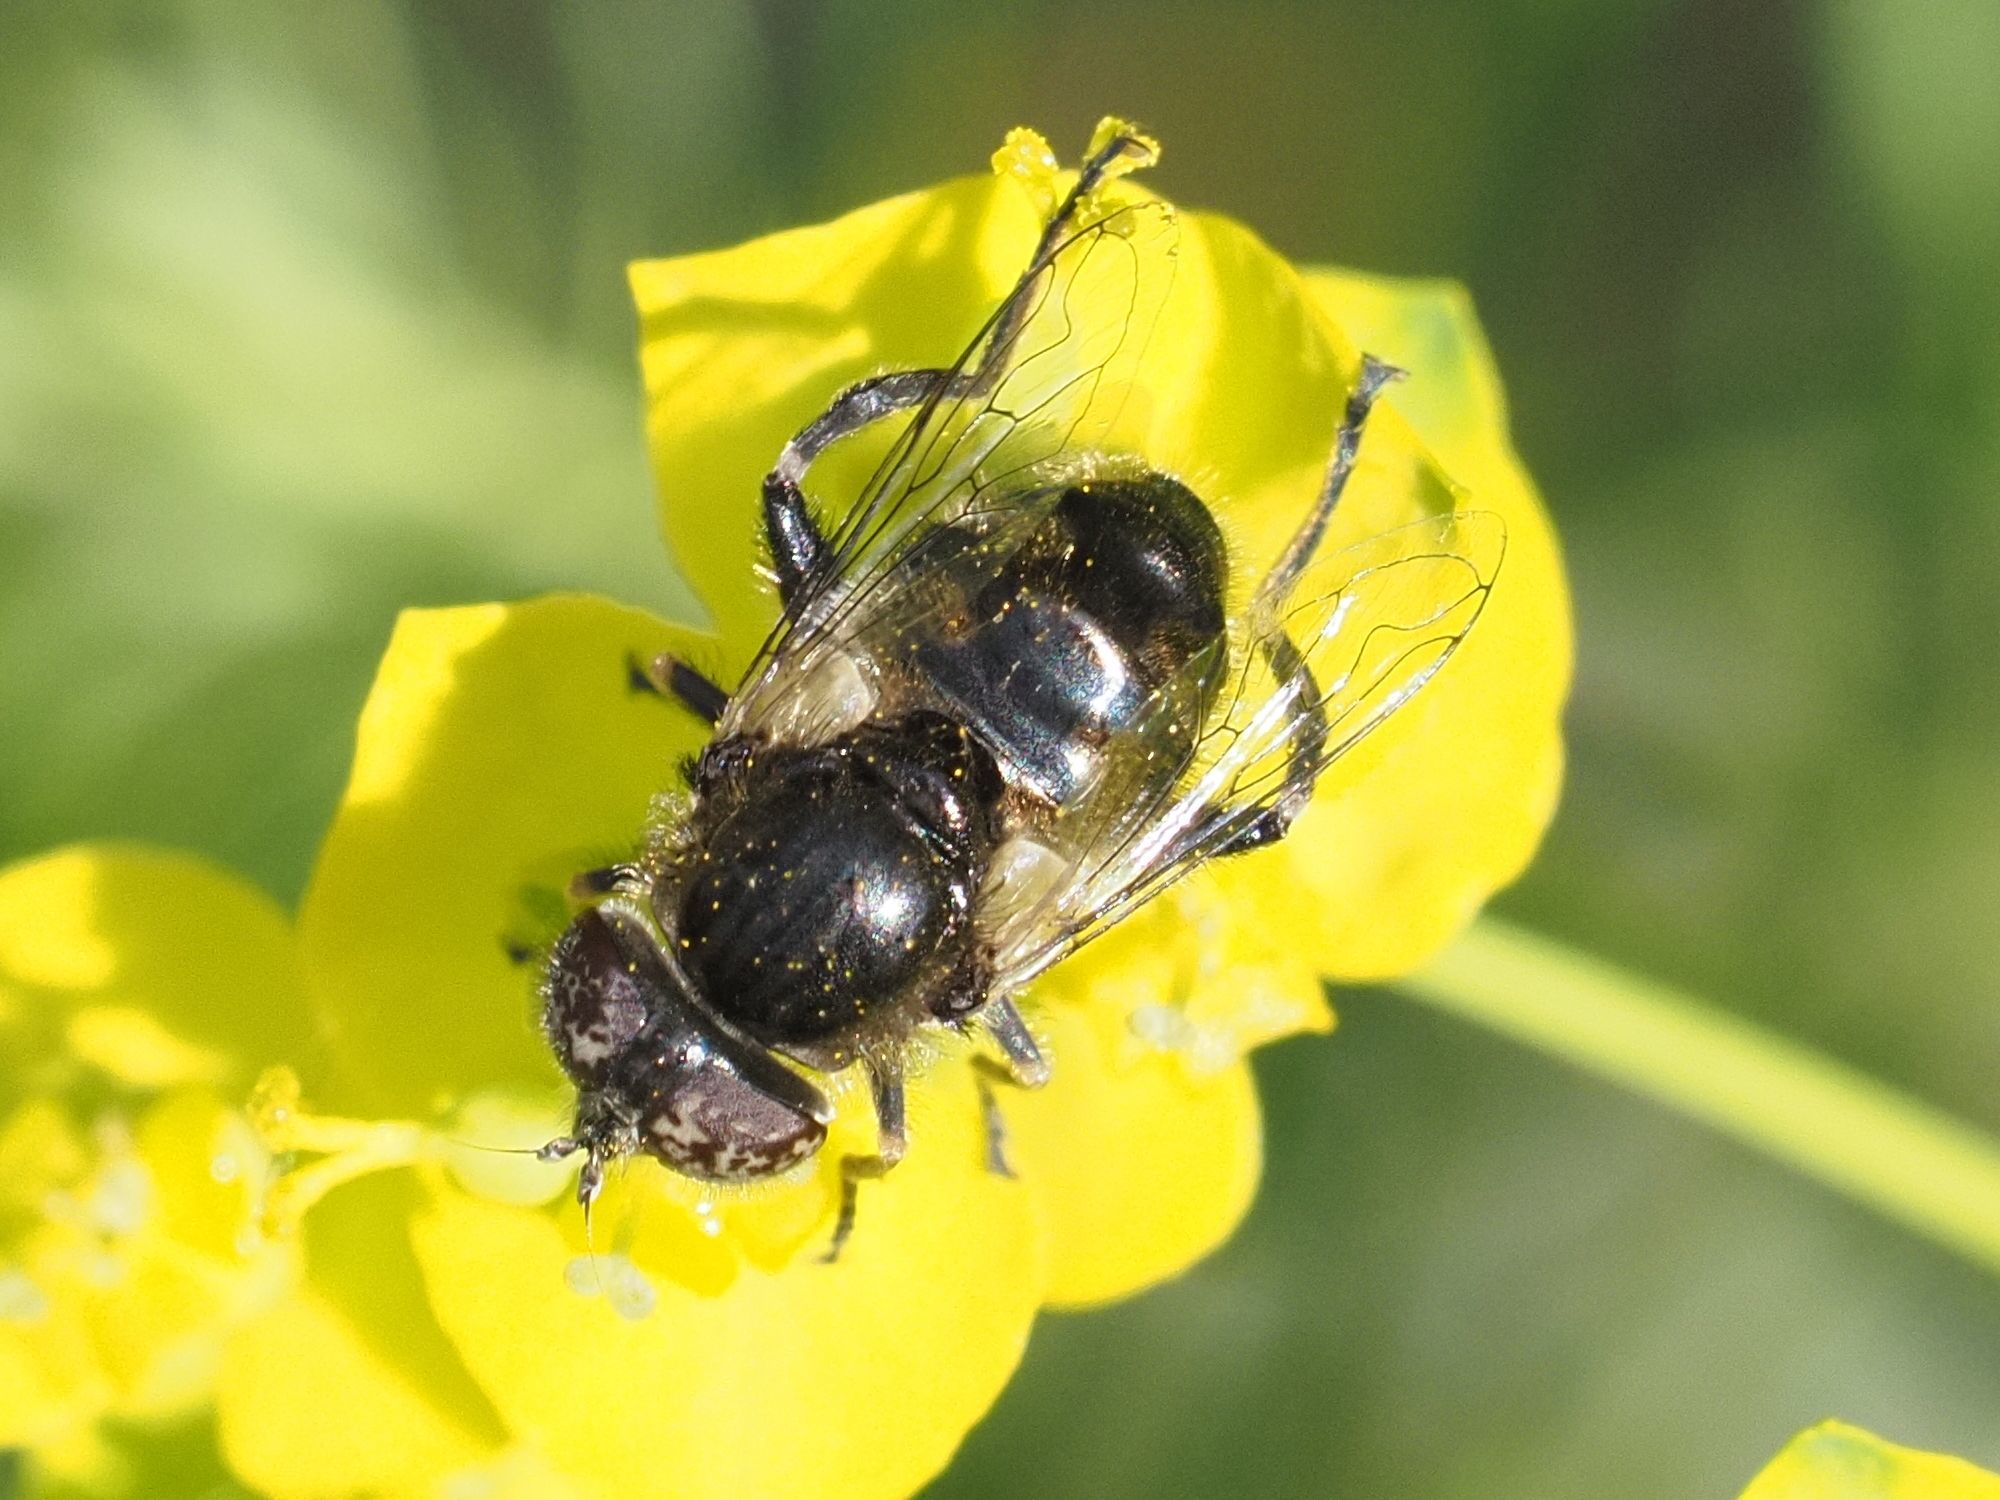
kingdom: Animalia
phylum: Arthropoda
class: Insecta
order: Diptera
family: Syrphidae
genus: Eristalinus
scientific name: Eristalinus sepulchralis
